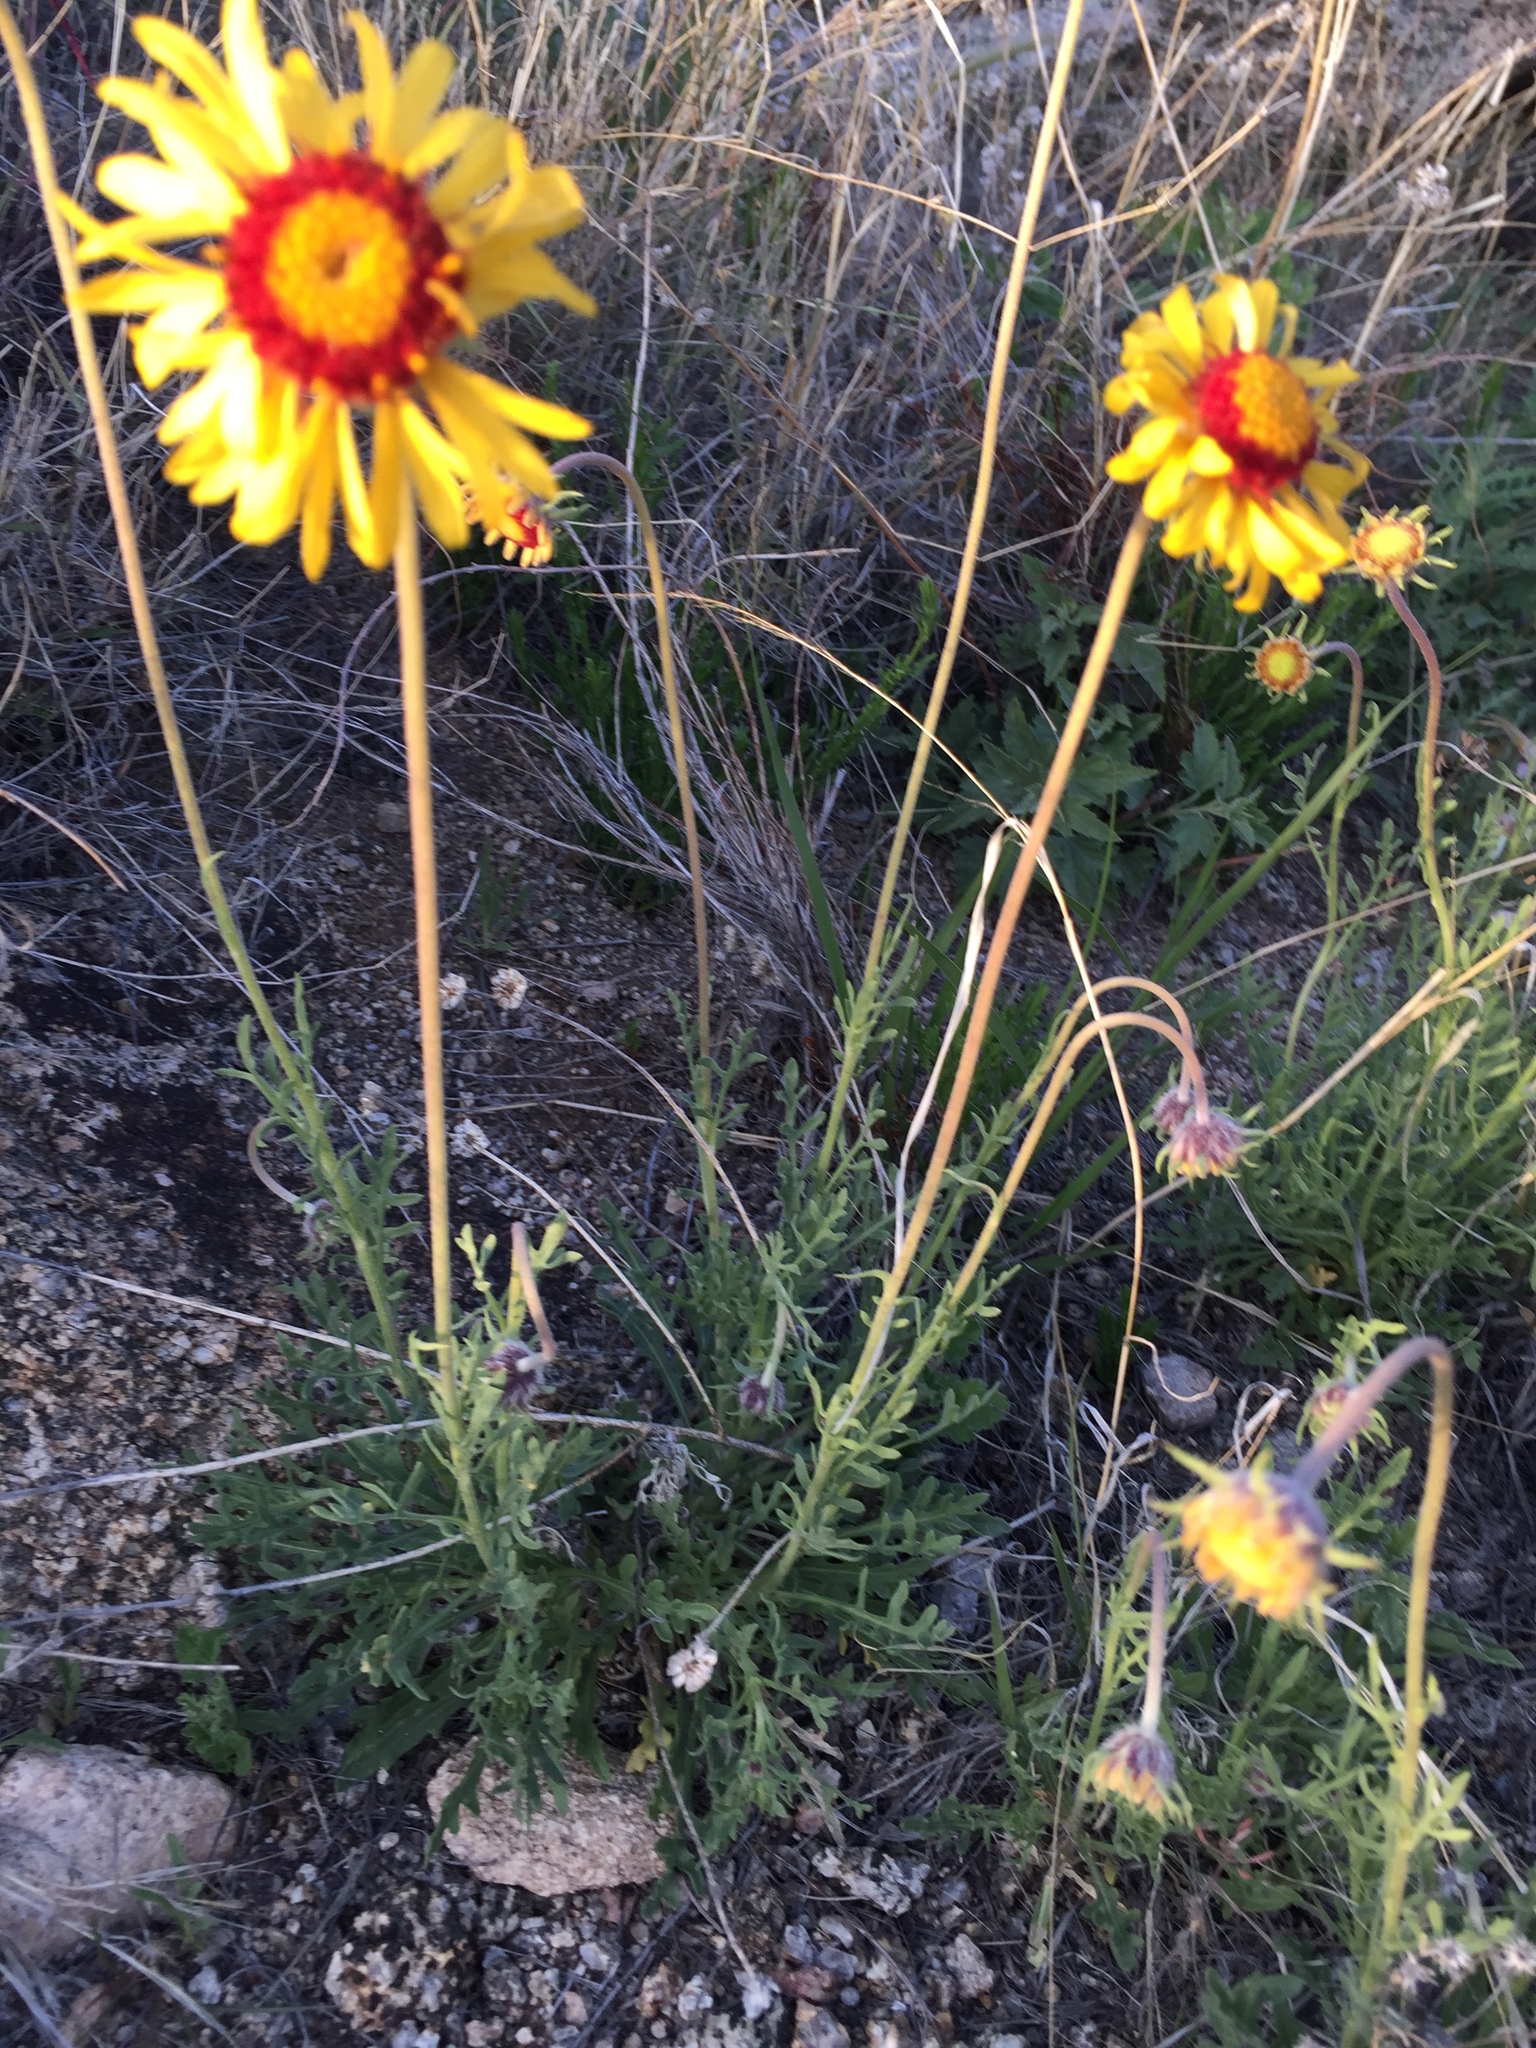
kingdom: Plantae
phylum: Tracheophyta
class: Magnoliopsida
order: Asterales
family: Asteraceae
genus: Gaillardia
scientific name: Gaillardia pinnatifida
